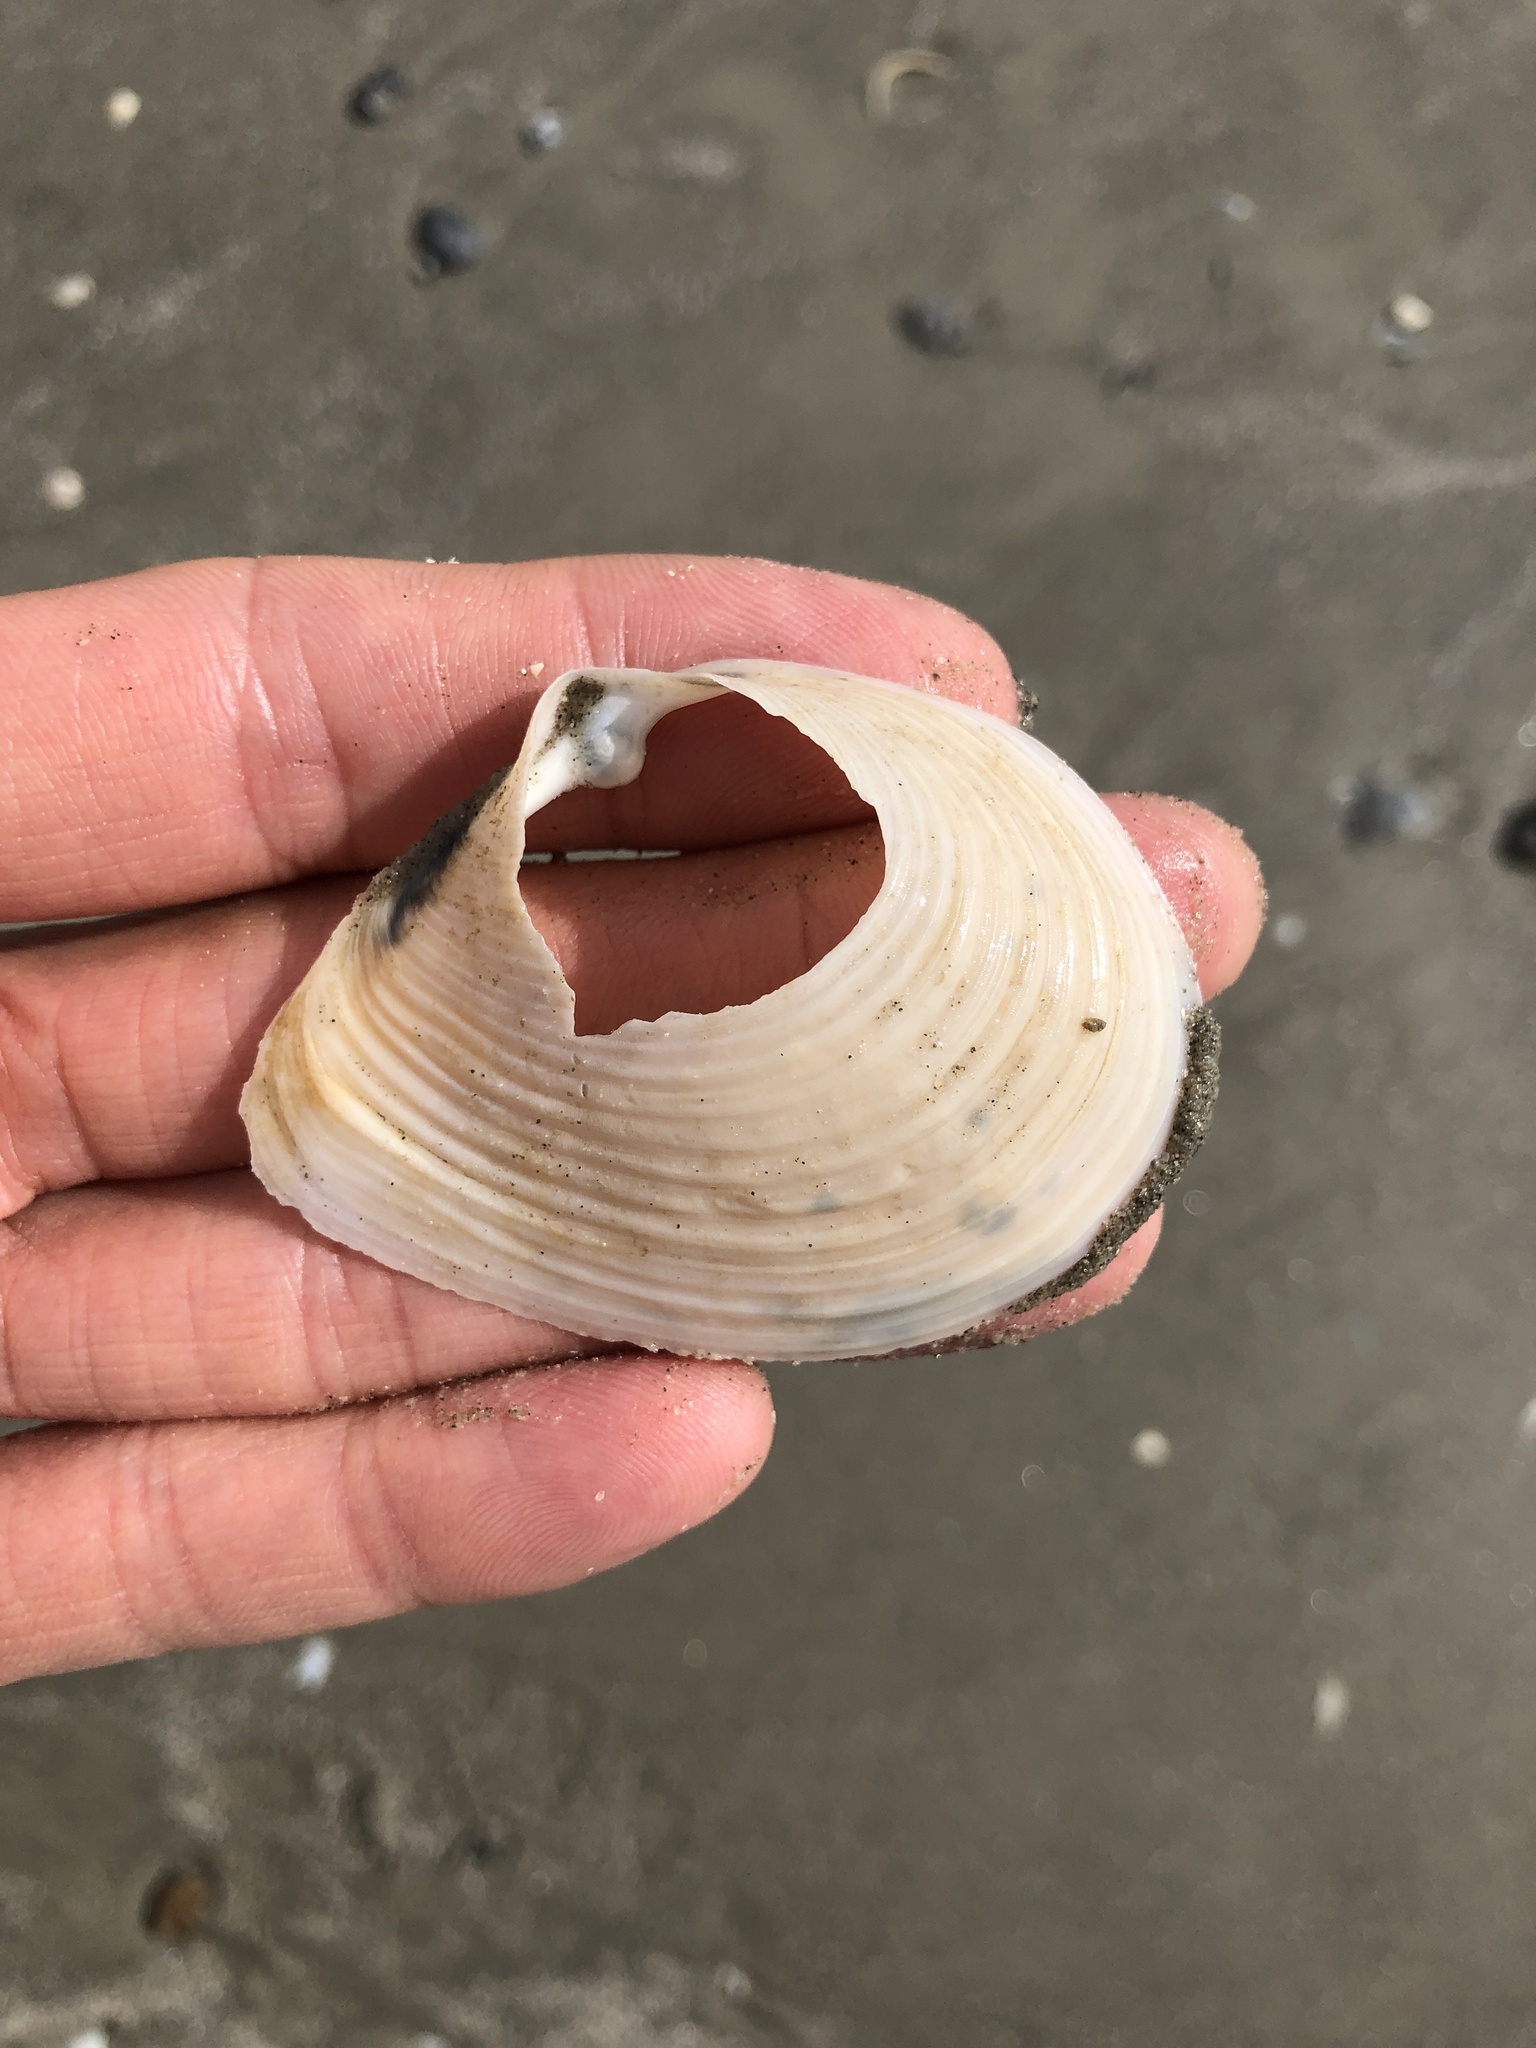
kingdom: Animalia
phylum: Mollusca
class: Bivalvia
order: Venerida
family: Anatinellidae
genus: Raeta
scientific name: Raeta plicatella
